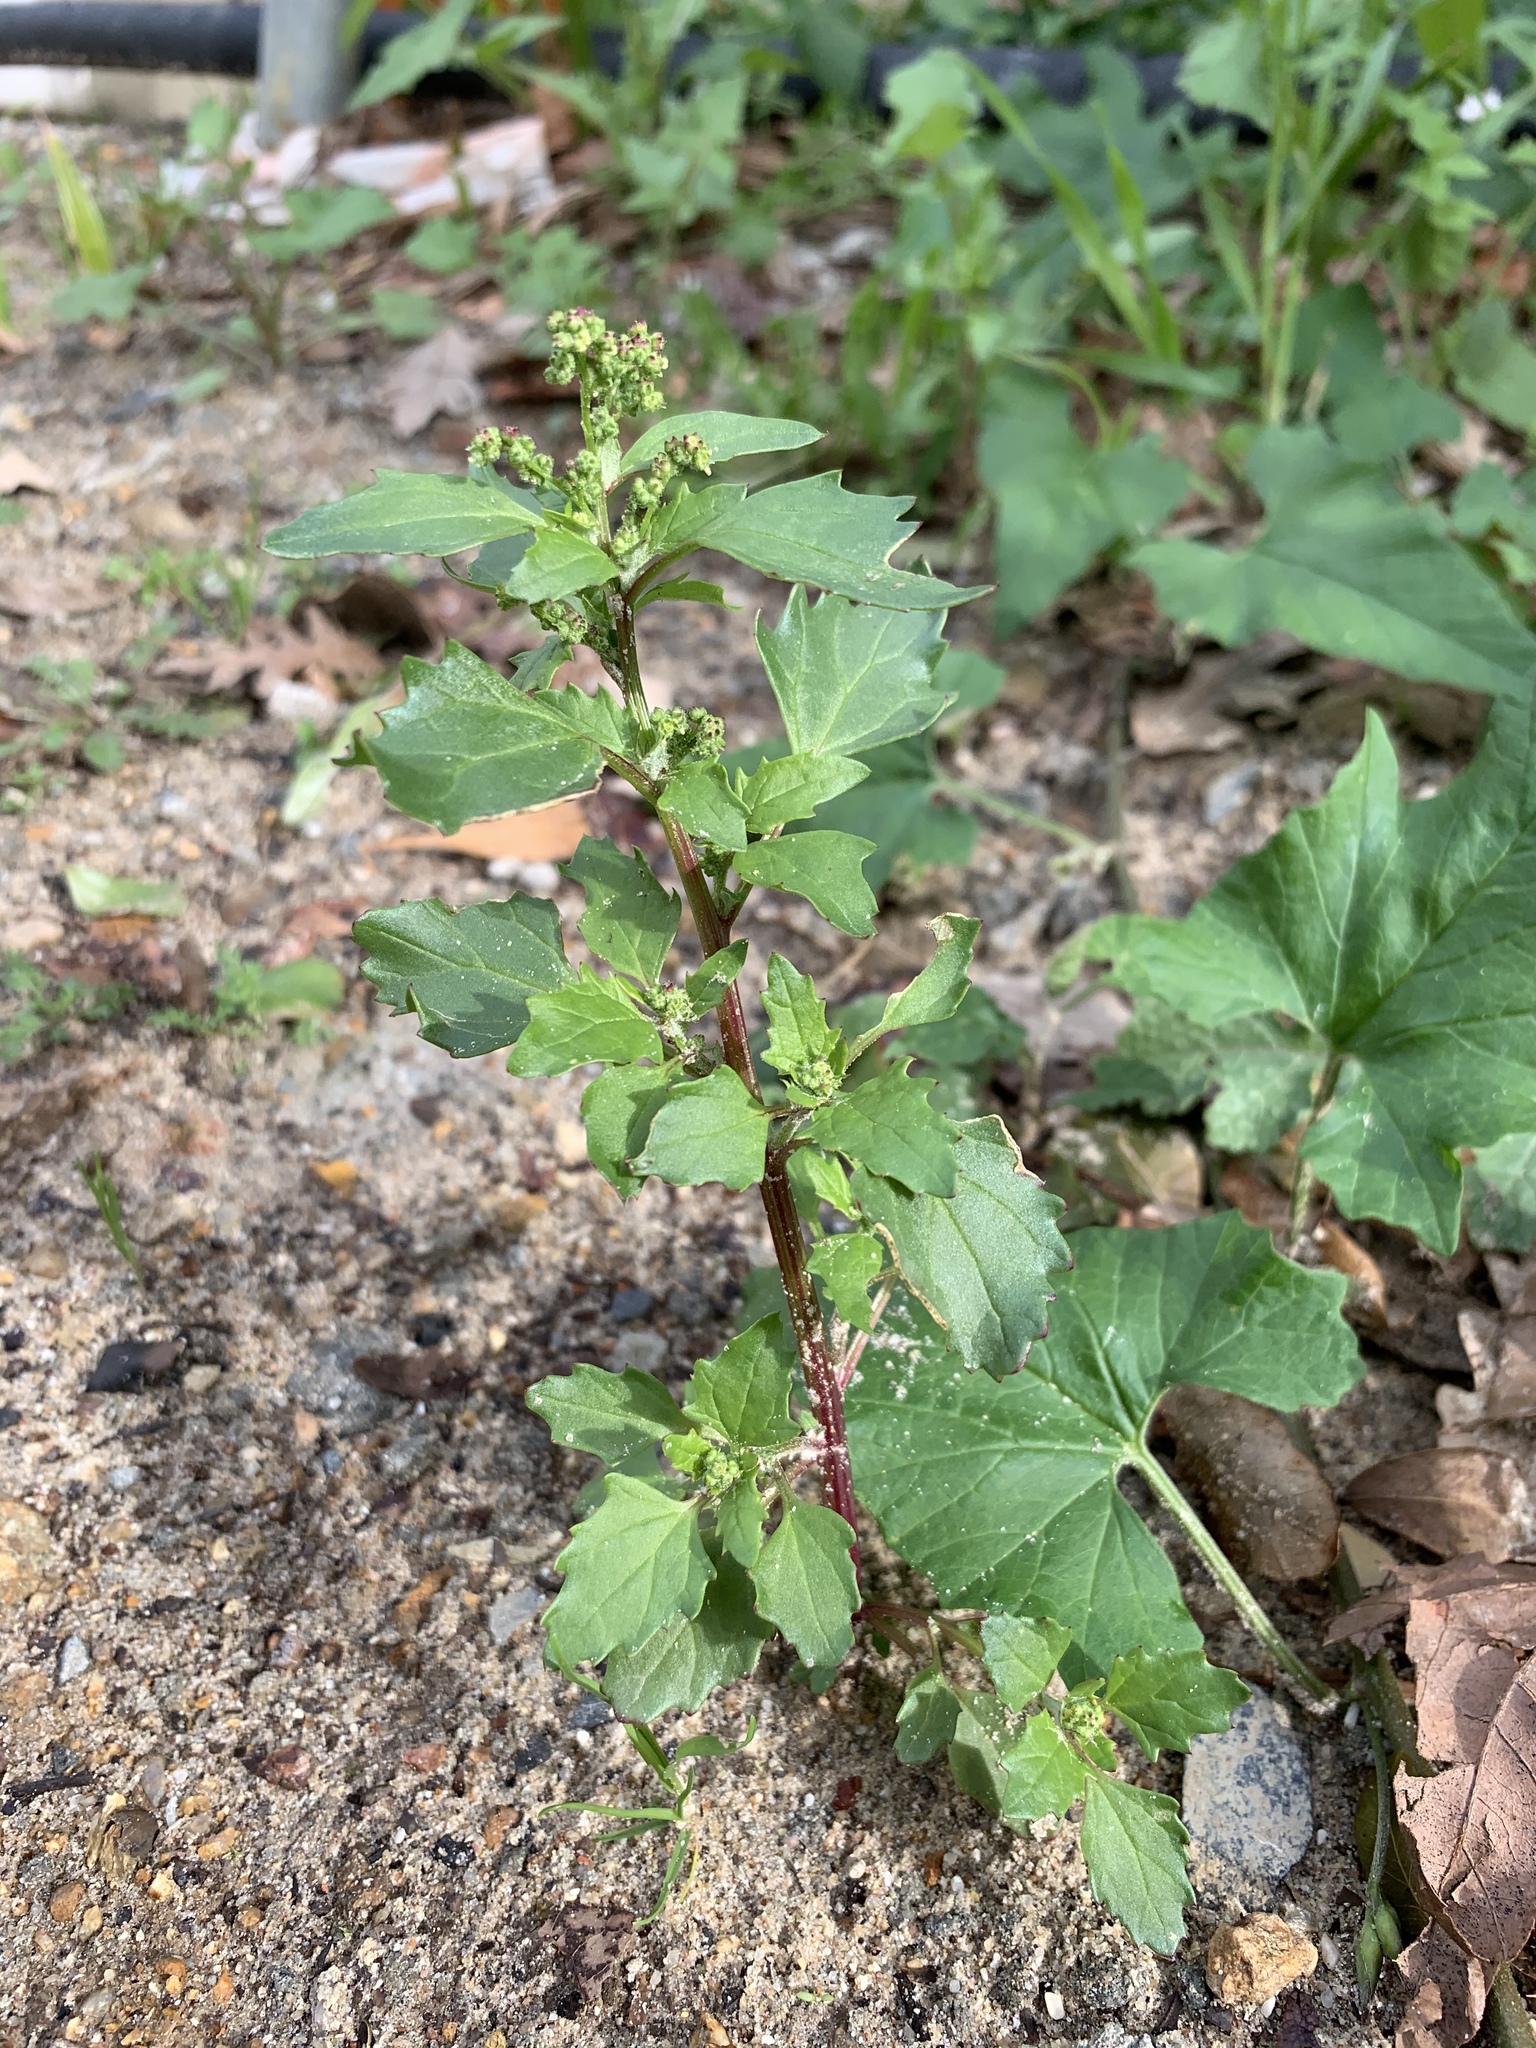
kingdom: Plantae
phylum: Tracheophyta
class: Magnoliopsida
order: Caryophyllales
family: Amaranthaceae
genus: Chenopodiastrum
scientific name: Chenopodiastrum murale
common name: Sowbane
